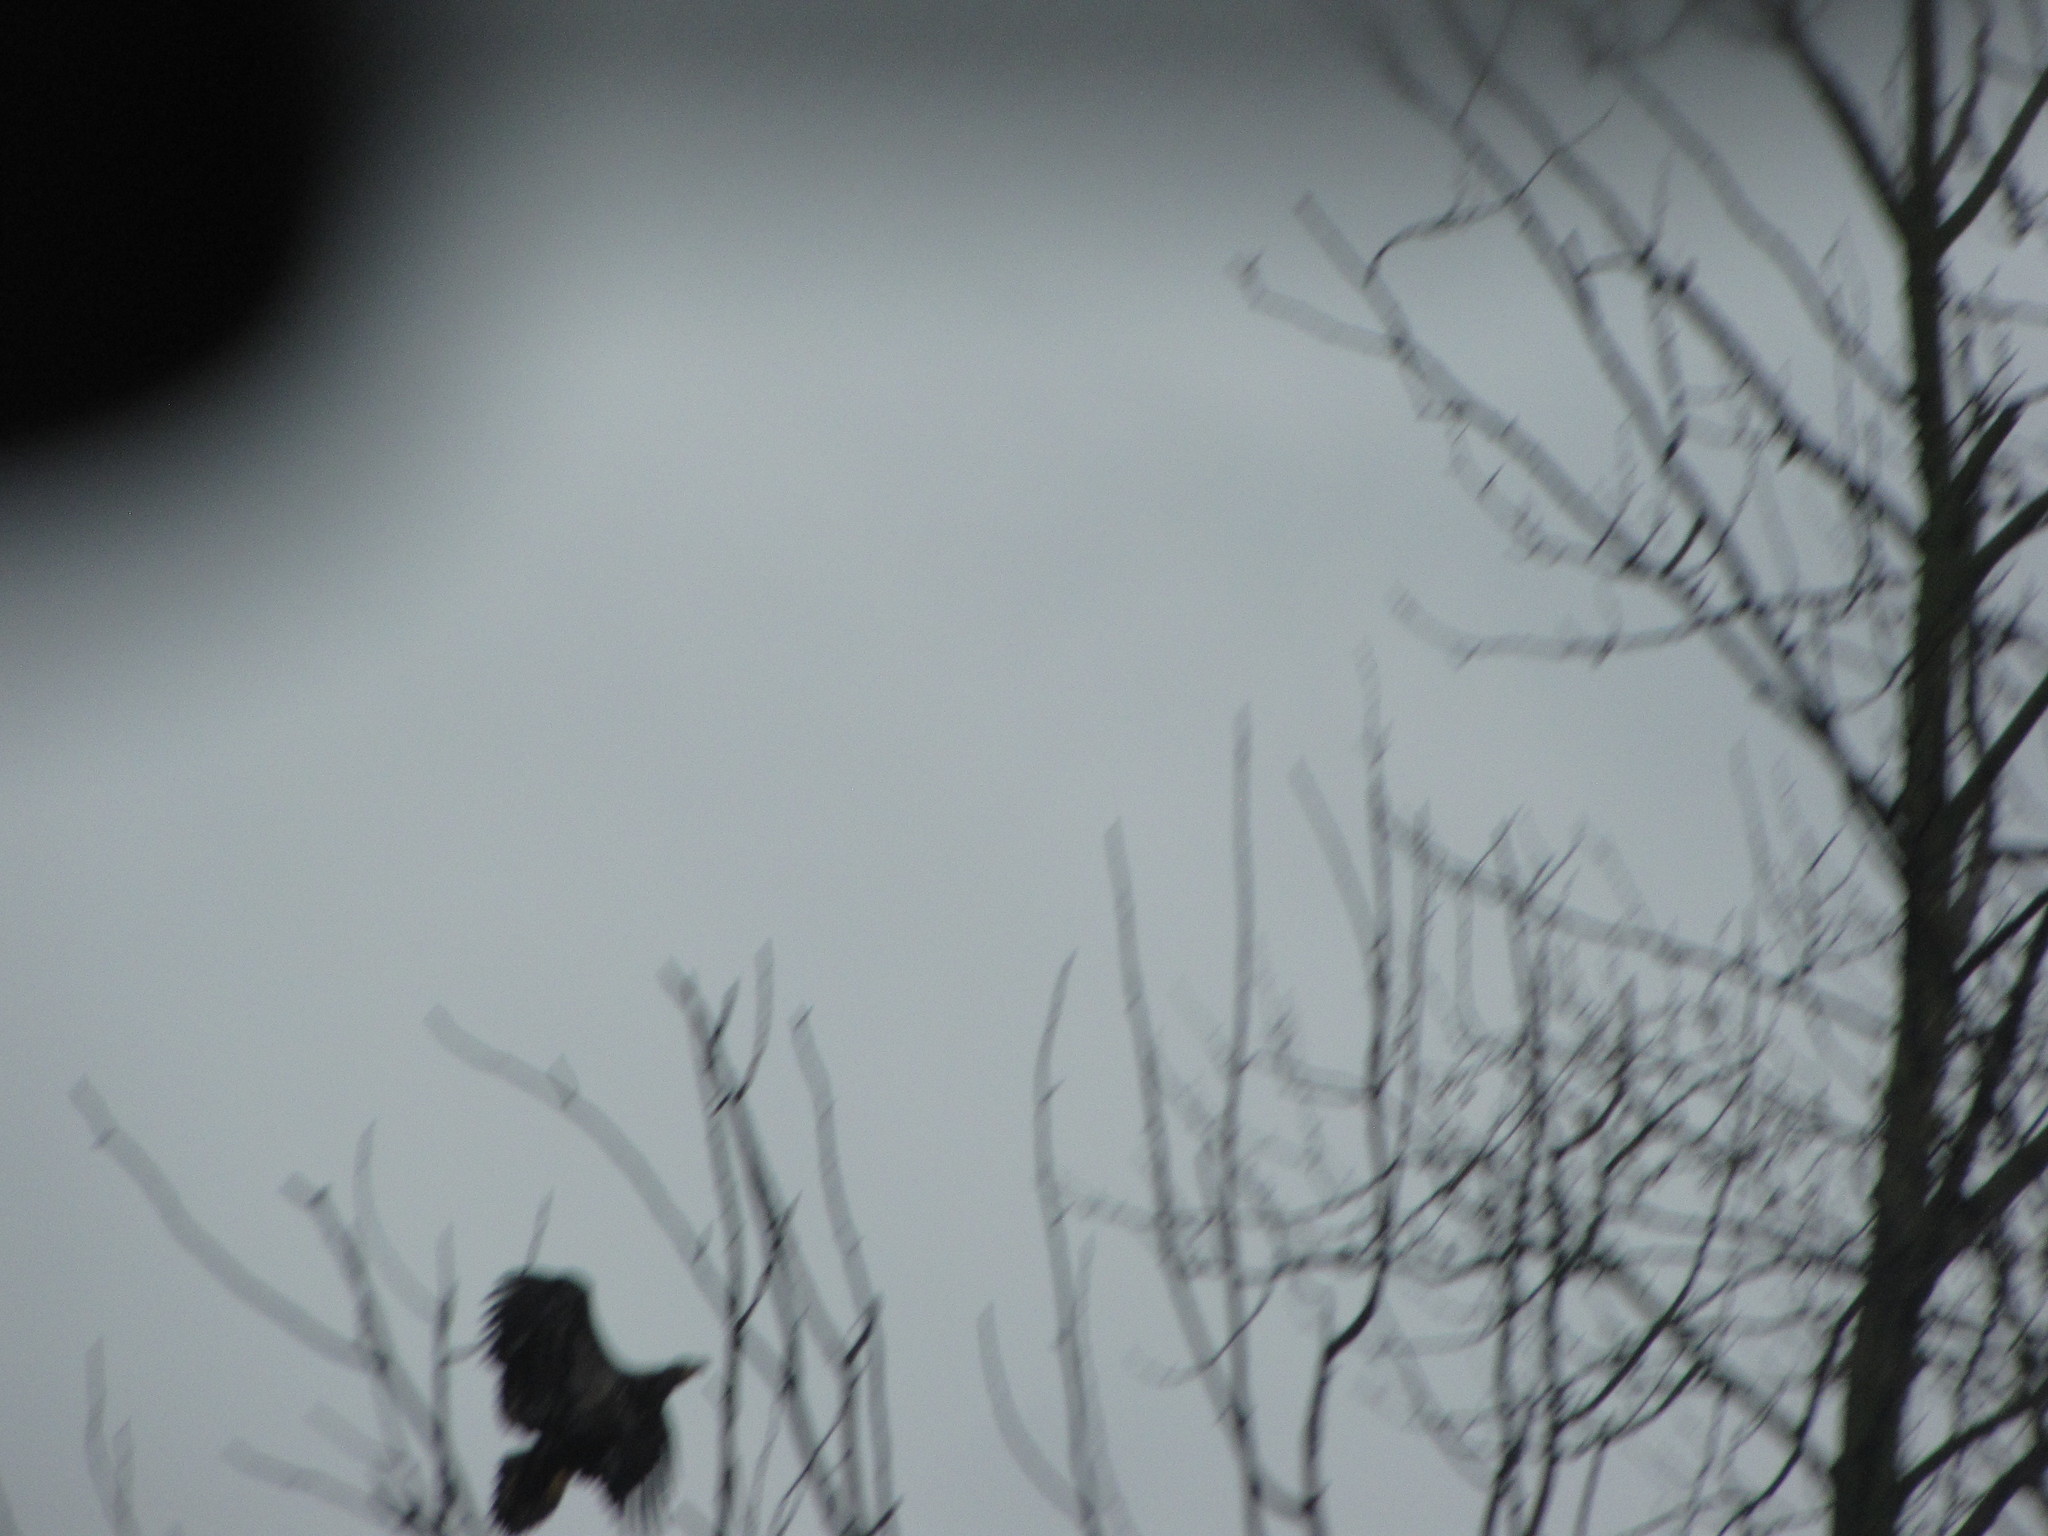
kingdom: Animalia
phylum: Chordata
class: Aves
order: Accipitriformes
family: Accipitridae
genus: Haliaeetus
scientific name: Haliaeetus leucocephalus
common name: Bald eagle
